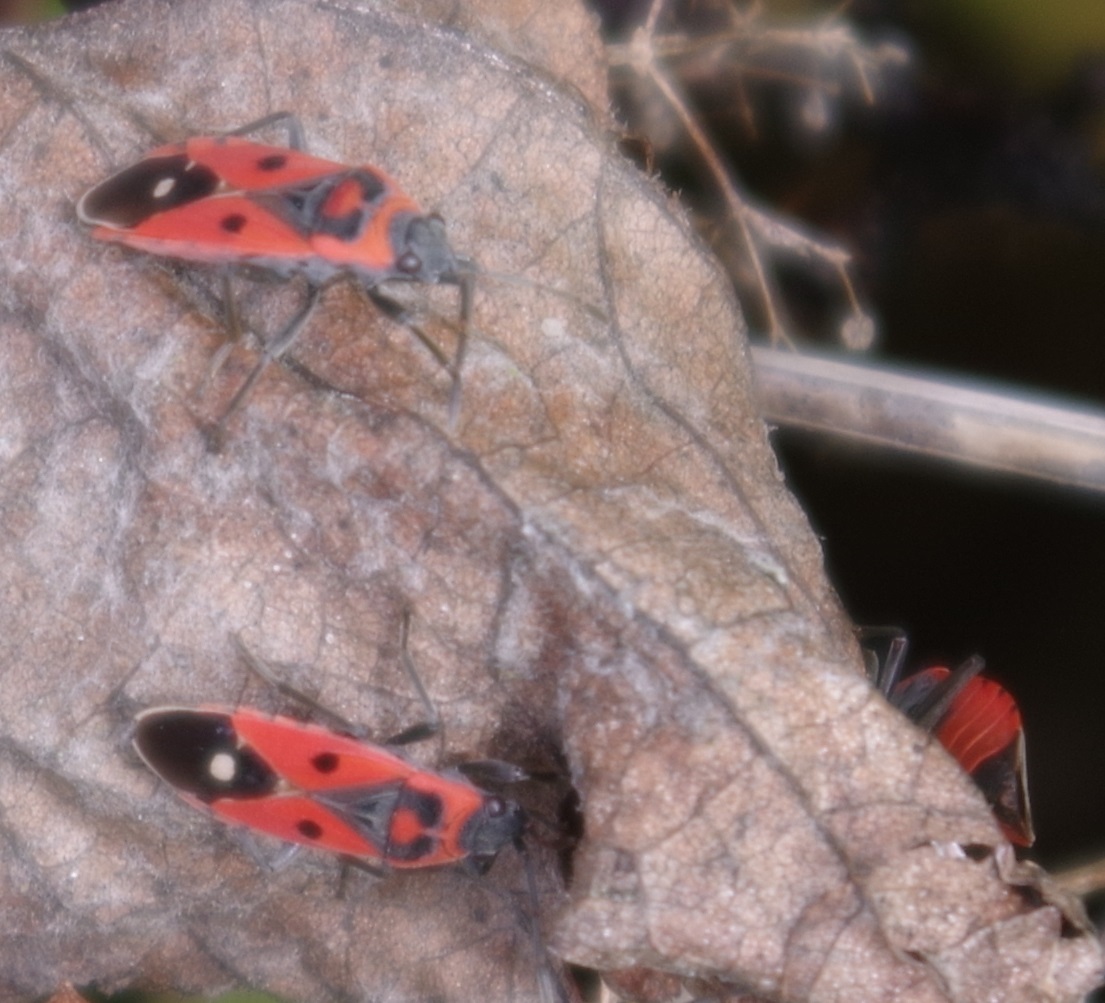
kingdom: Animalia
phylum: Arthropoda
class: Insecta
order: Hemiptera
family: Lygaeidae
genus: Melanocoryphus
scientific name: Melanocoryphus albomaculatus
